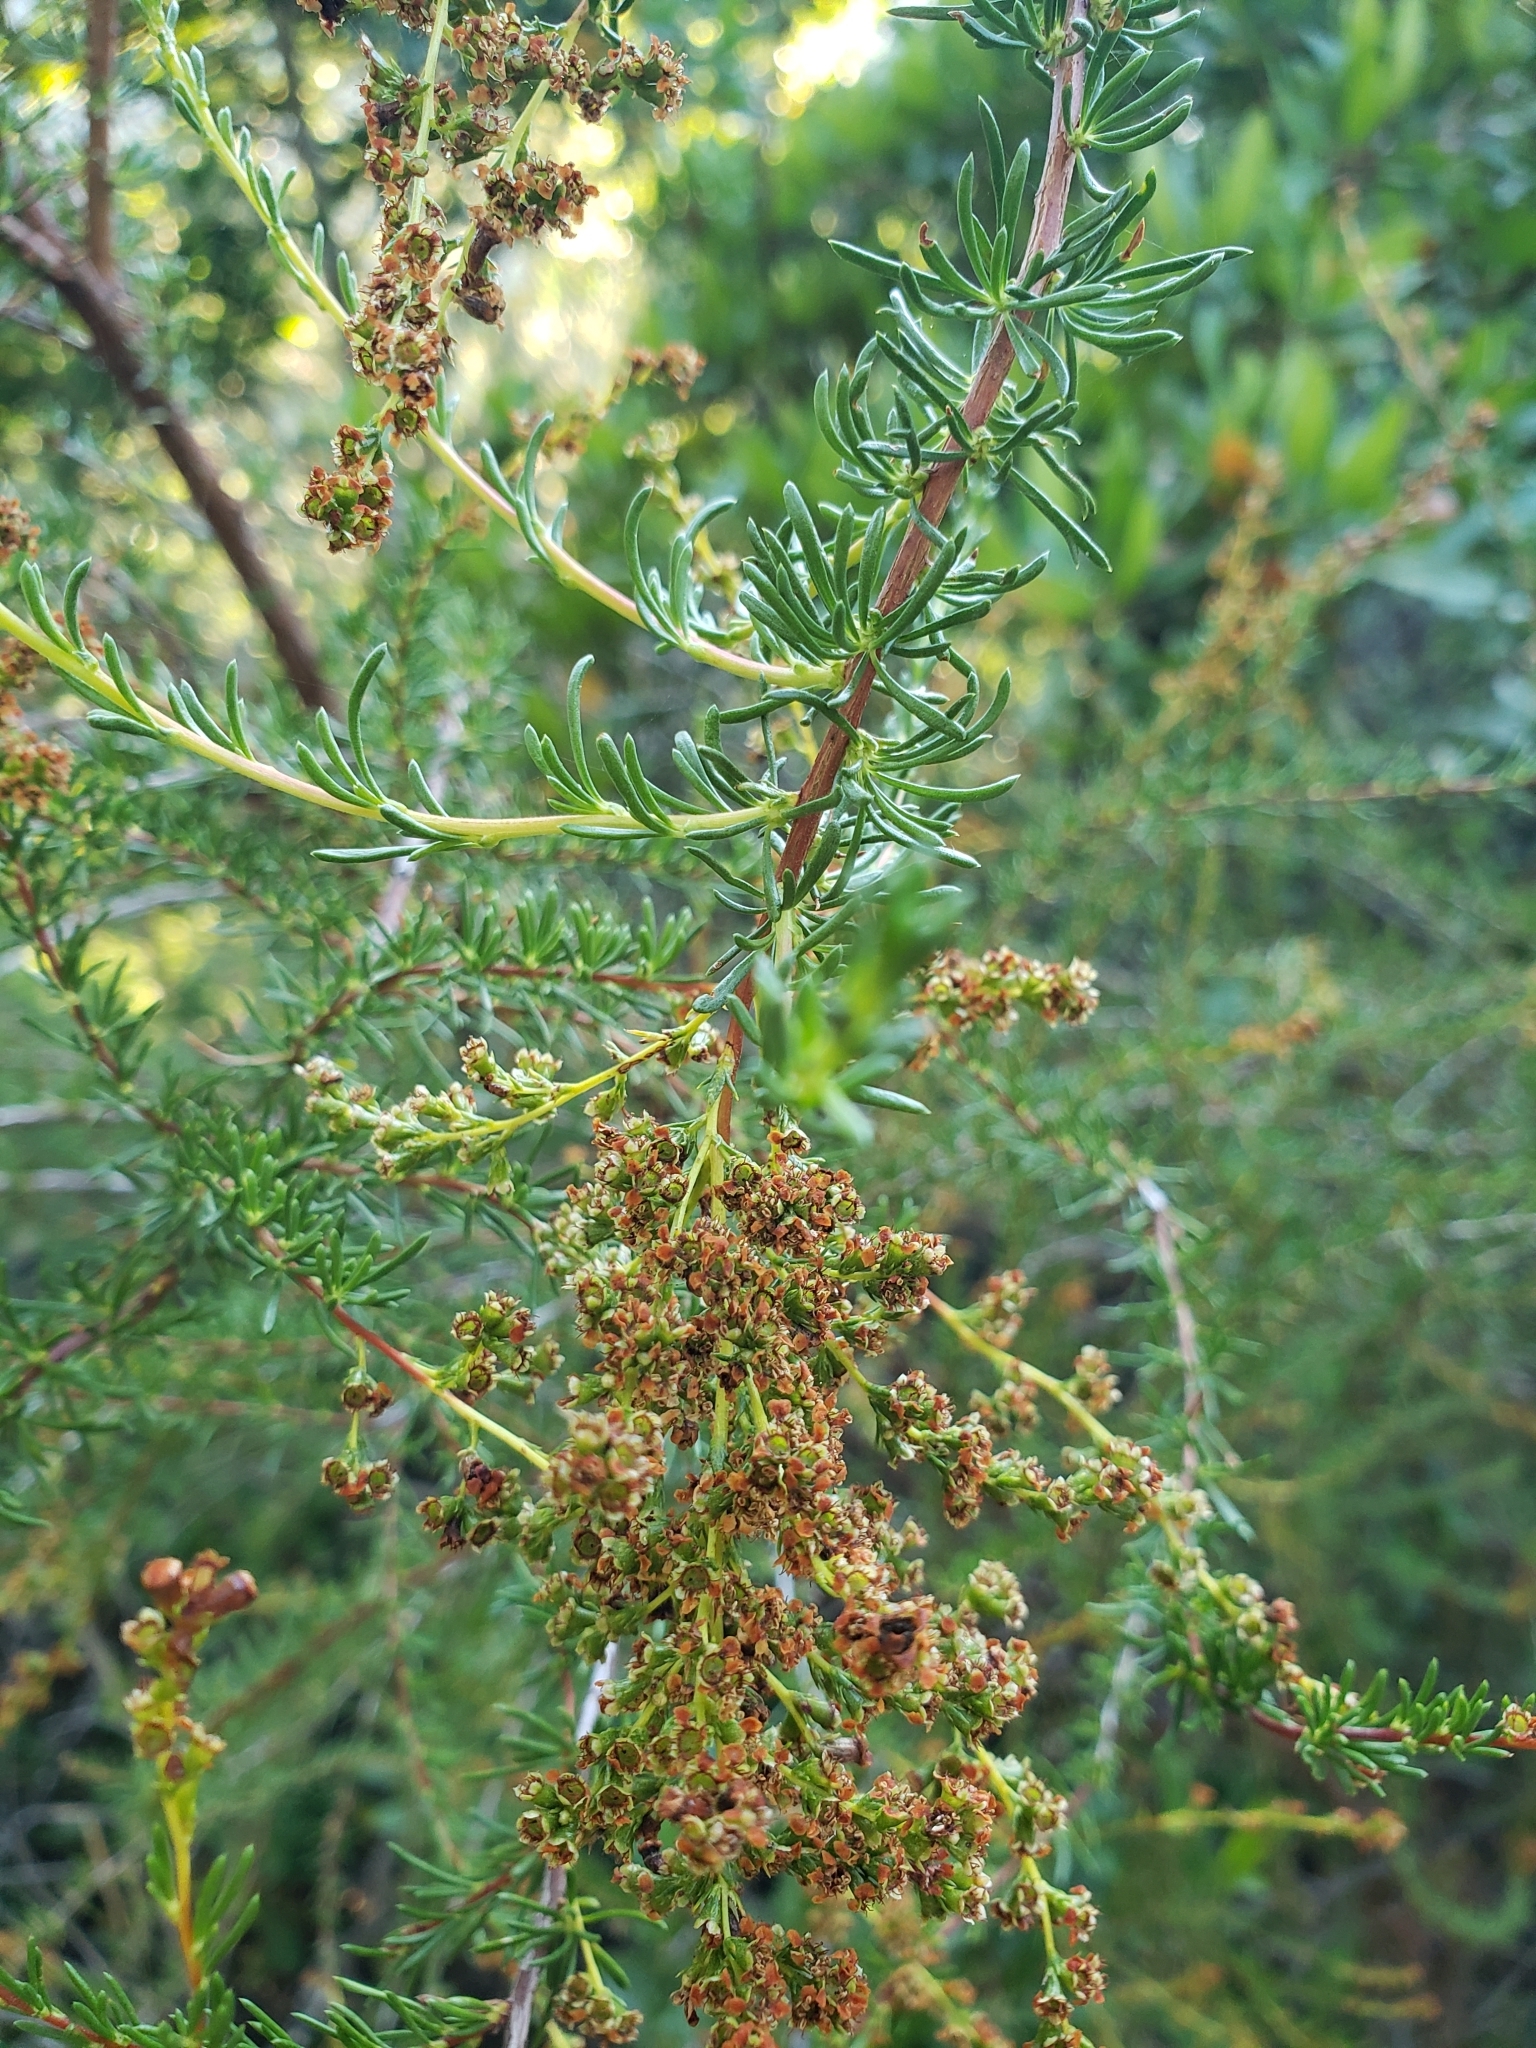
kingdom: Plantae
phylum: Tracheophyta
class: Magnoliopsida
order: Rosales
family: Rosaceae
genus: Adenostoma
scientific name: Adenostoma fasciculatum
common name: Chamise
